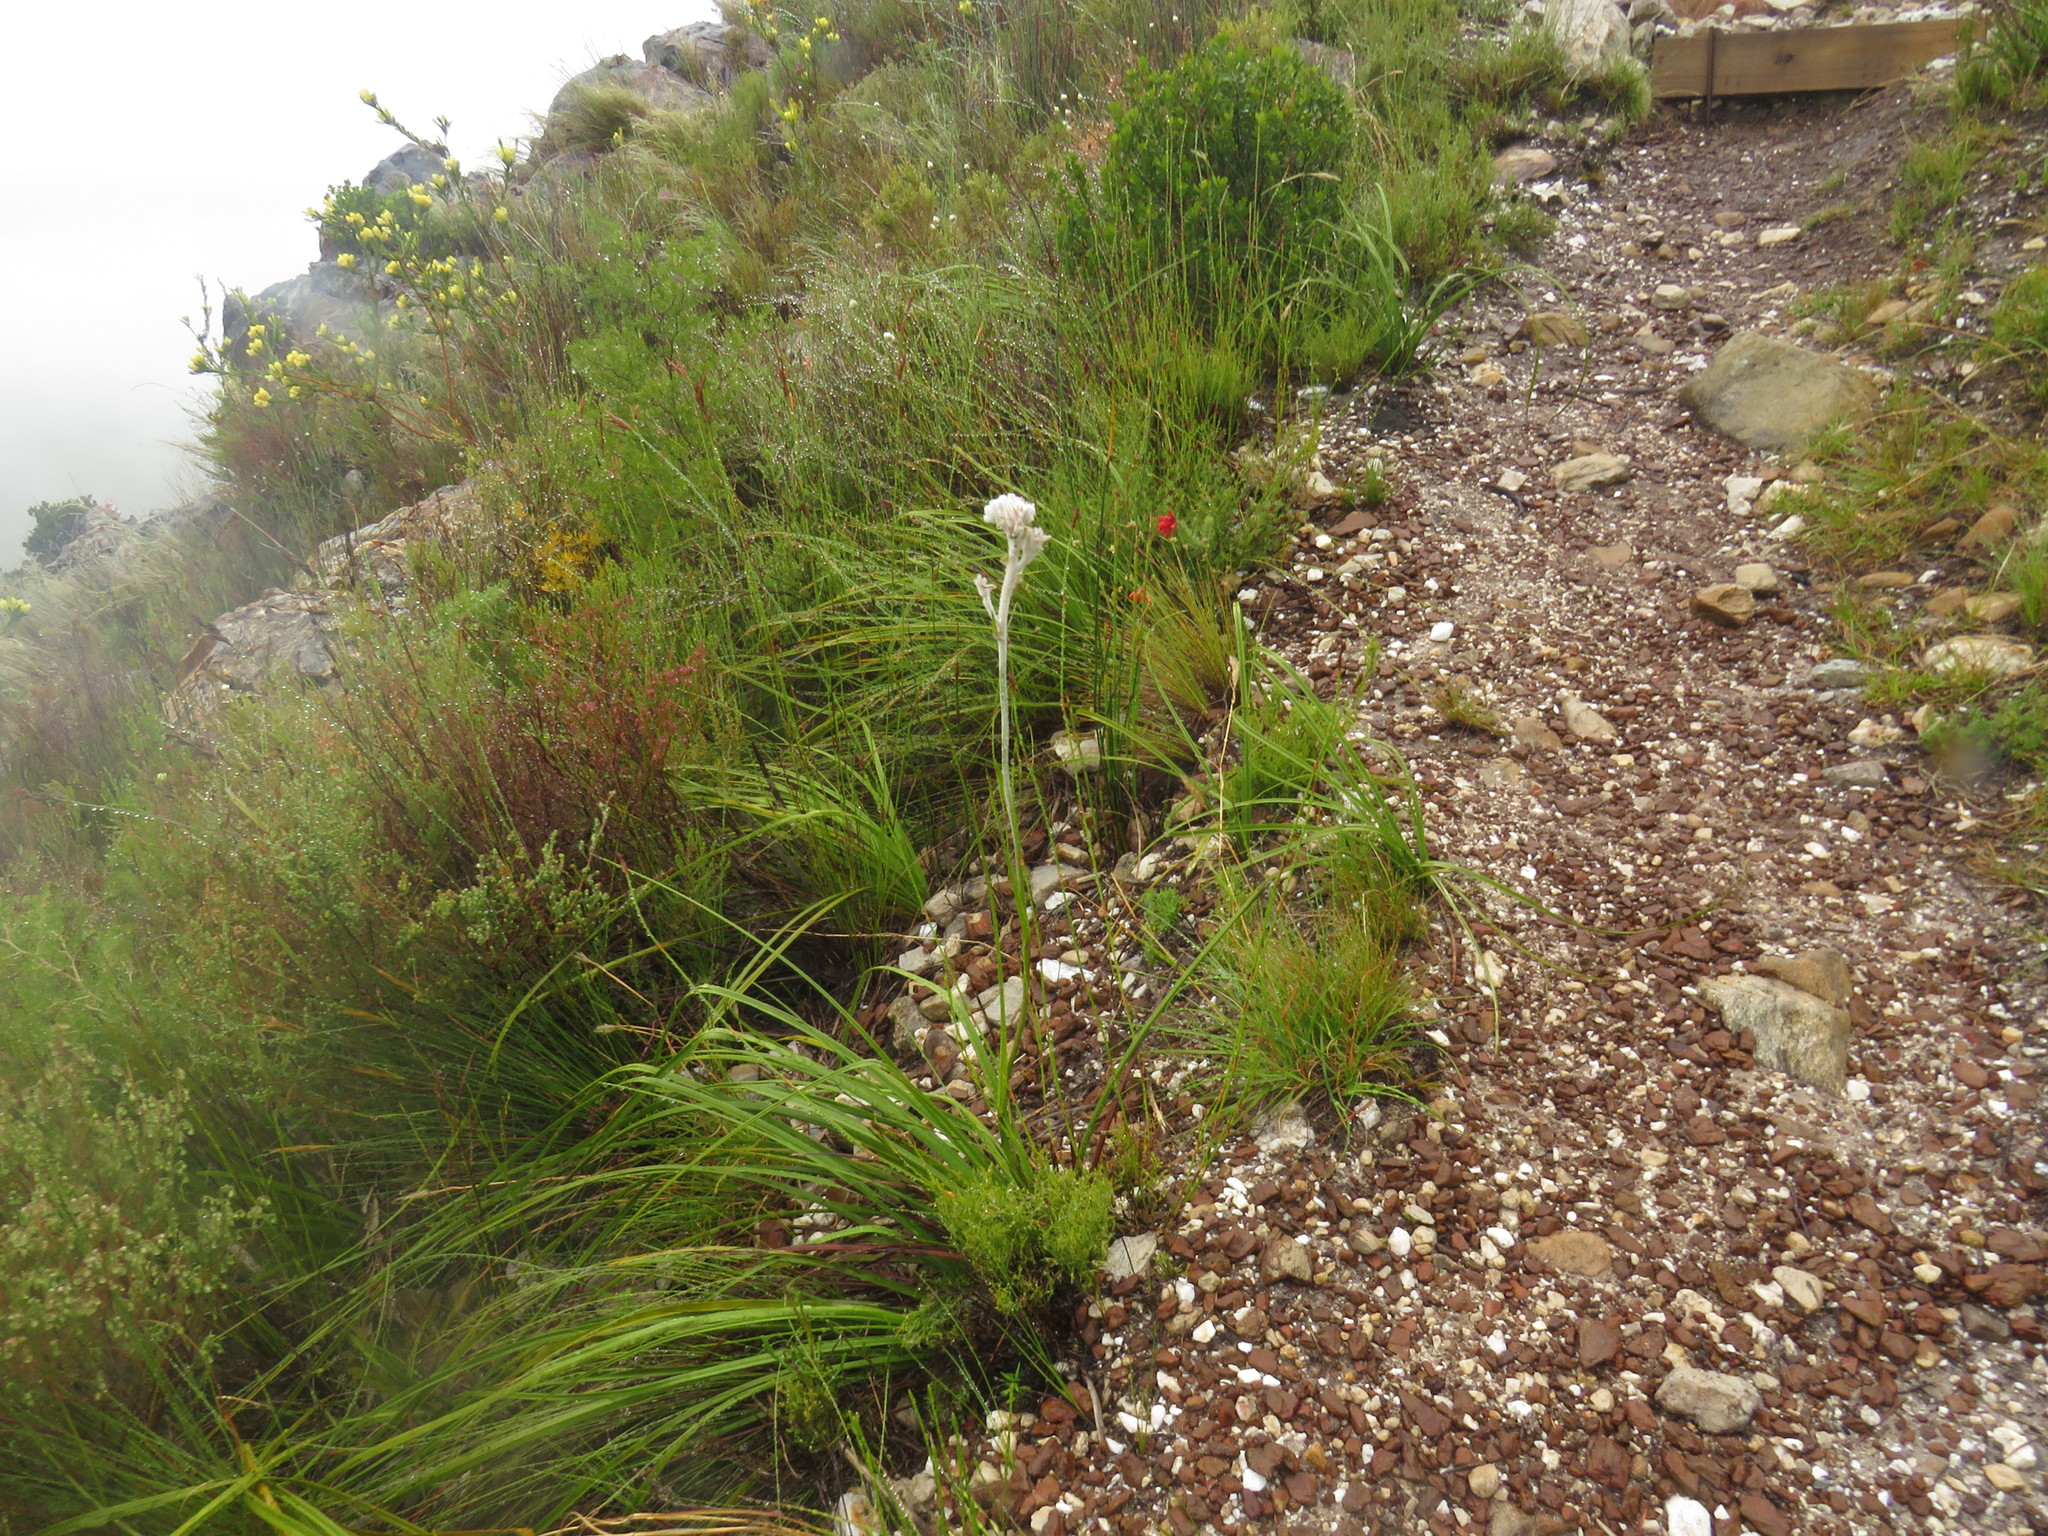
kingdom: Plantae
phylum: Tracheophyta
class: Liliopsida
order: Asparagales
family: Lanariaceae
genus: Lanaria
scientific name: Lanaria lanata
